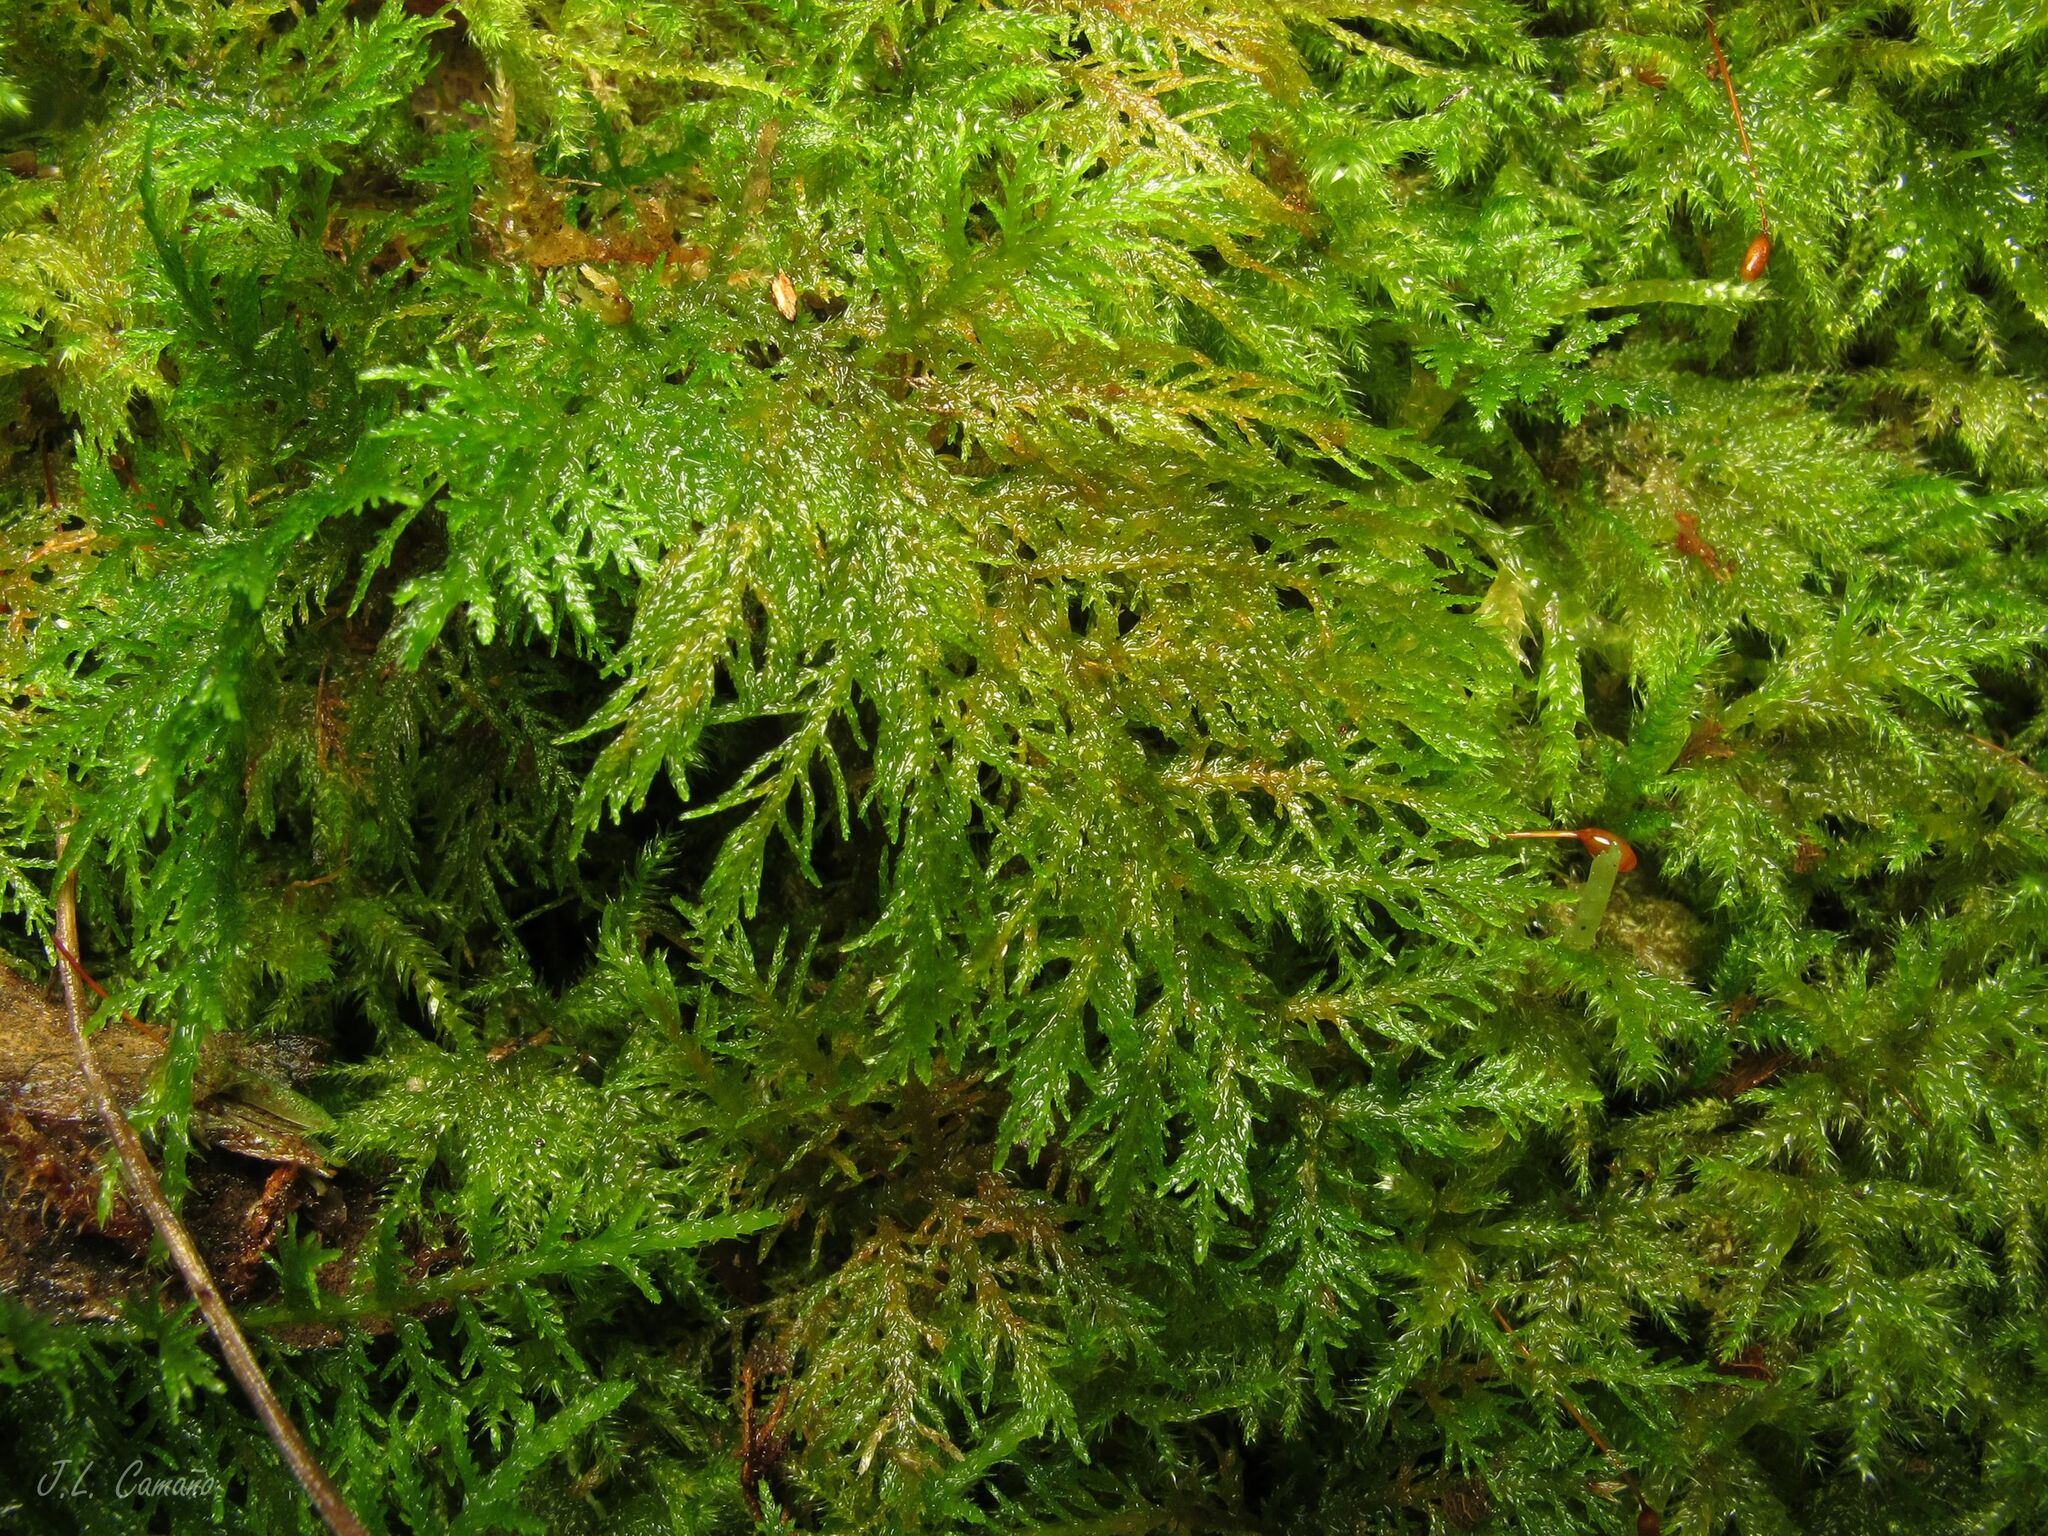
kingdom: Plantae
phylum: Bryophyta
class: Bryopsida
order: Hypnales
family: Thuidiaceae
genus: Thuidium
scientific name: Thuidium tamariscinum
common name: Common tamarisk-moss
